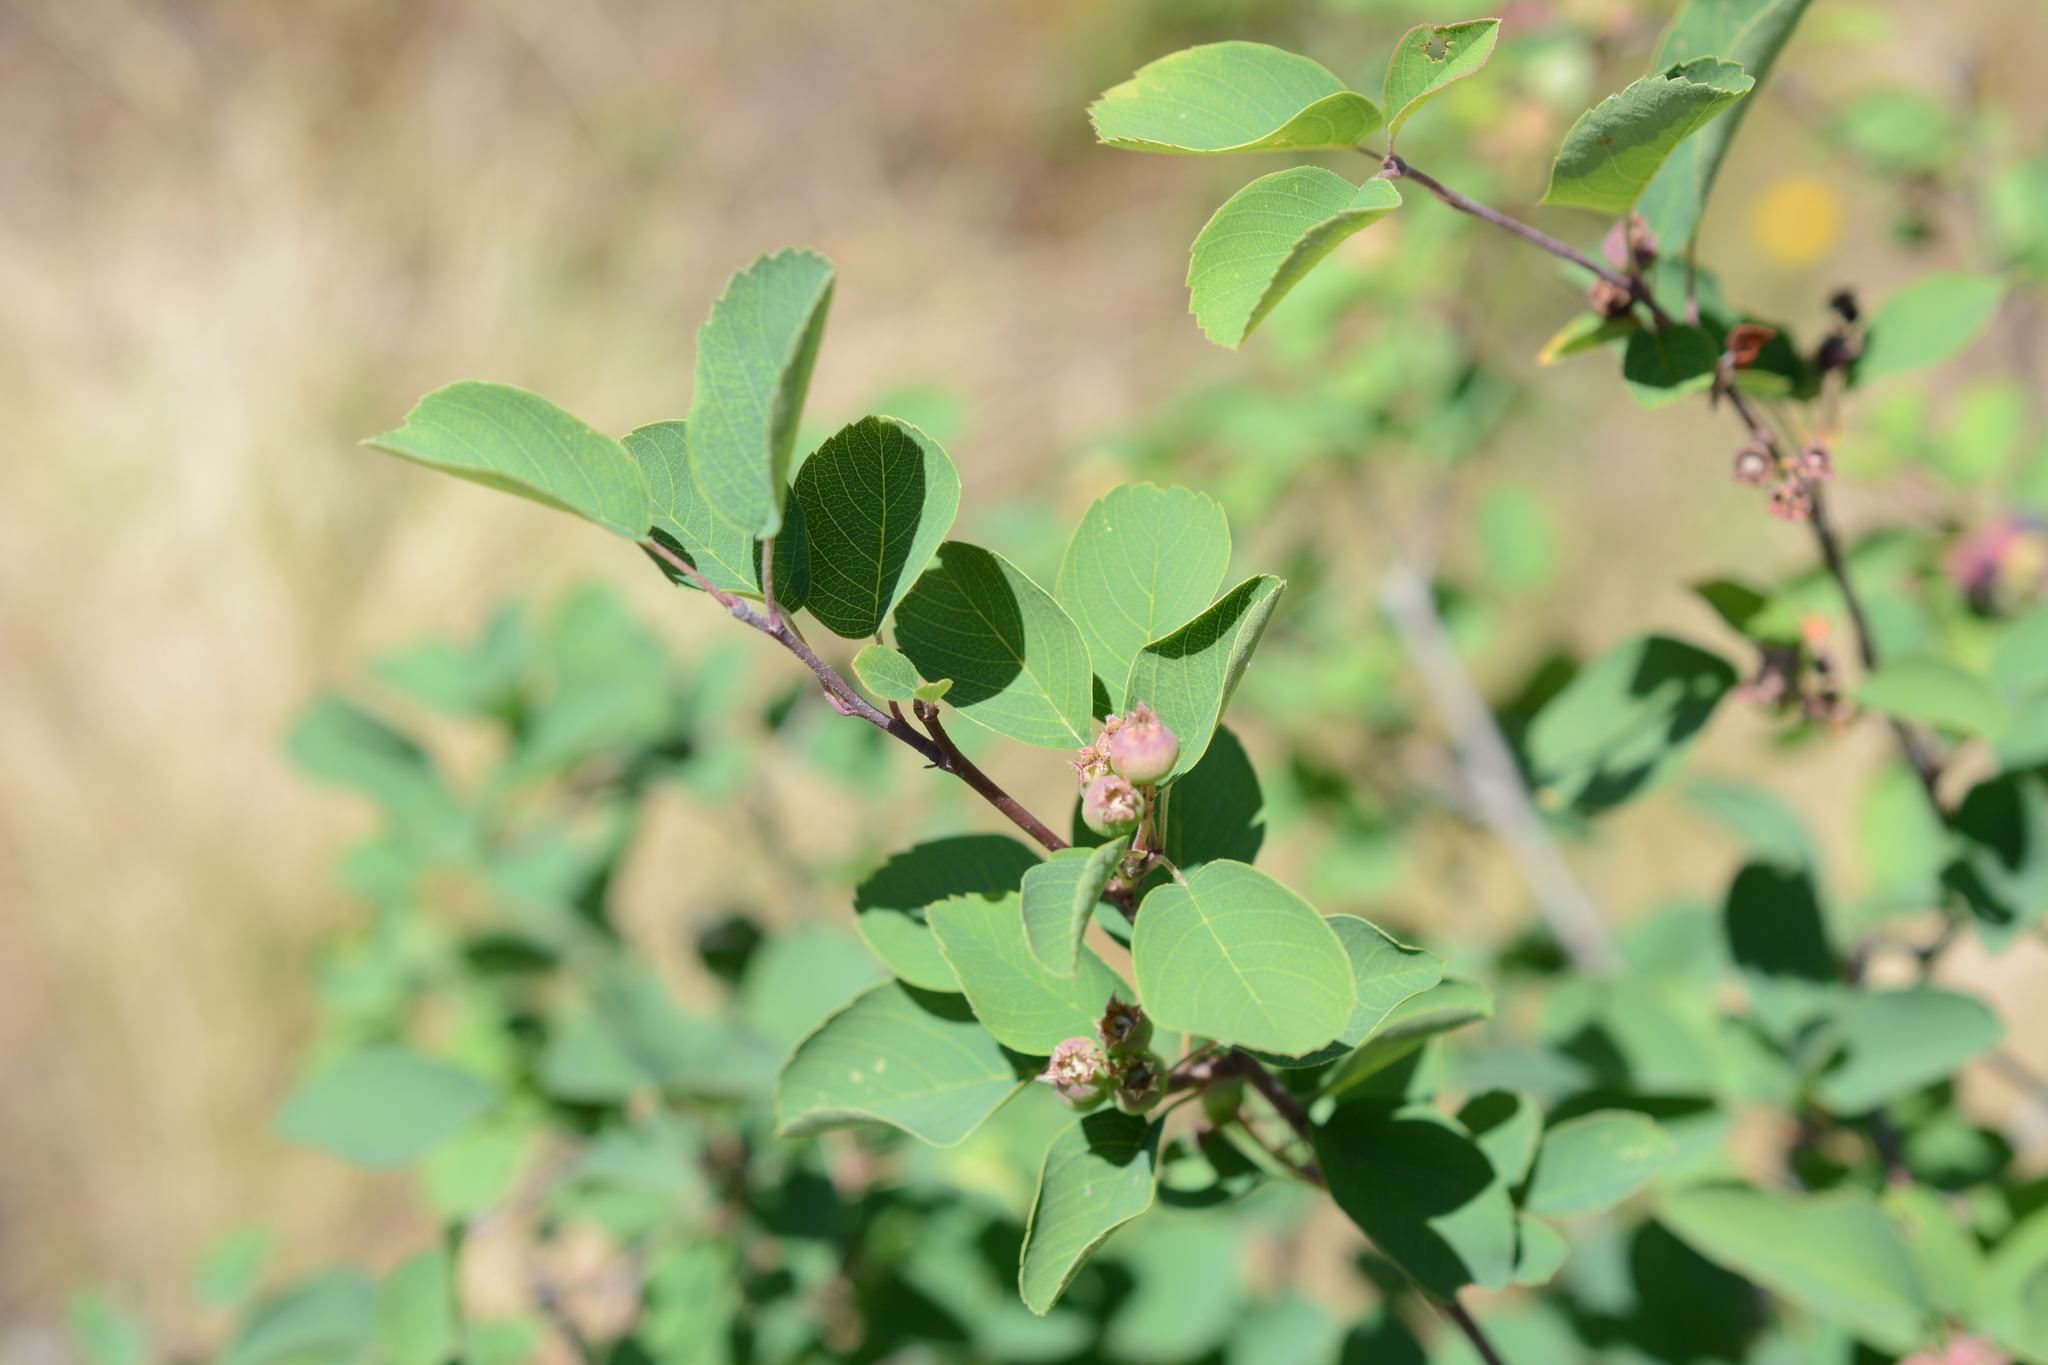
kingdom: Plantae
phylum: Tracheophyta
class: Magnoliopsida
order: Rosales
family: Rosaceae
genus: Amelanchier
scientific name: Amelanchier alnifolia
